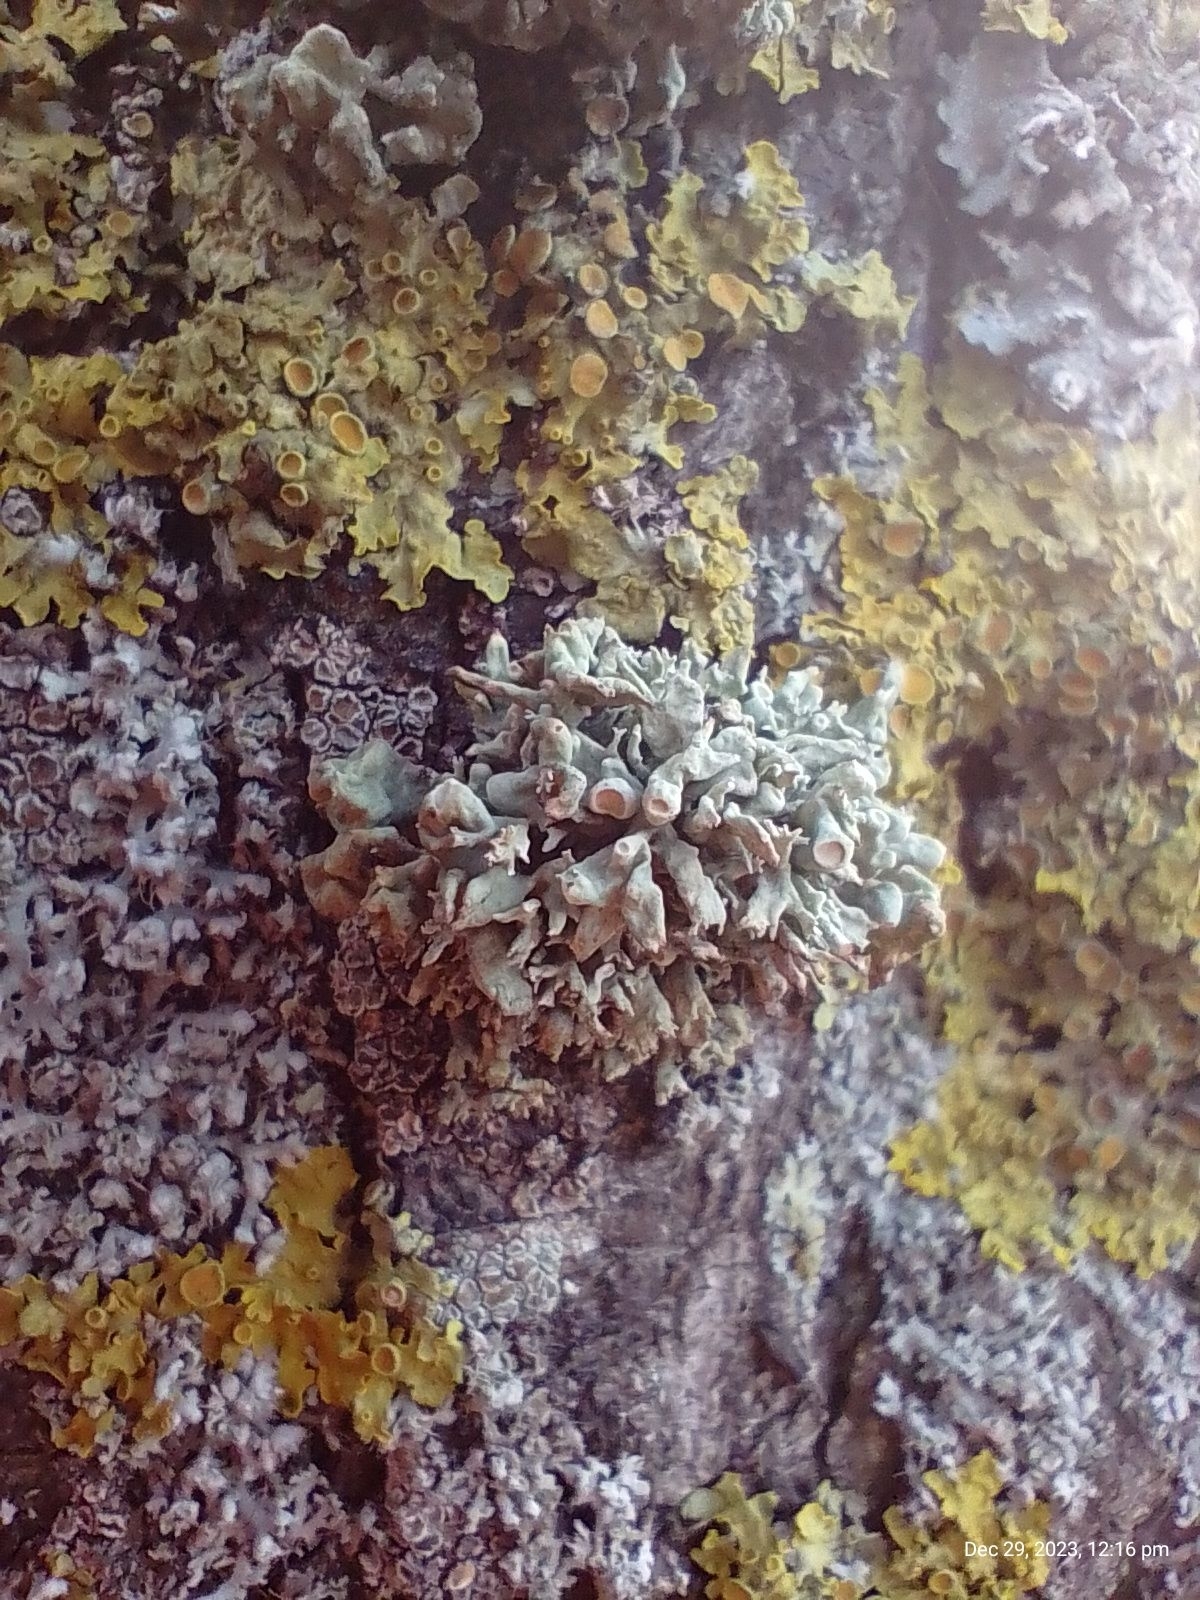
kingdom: Fungi
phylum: Ascomycota
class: Lecanoromycetes
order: Lecanorales
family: Ramalinaceae
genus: Ramalina
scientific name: Ramalina fastigiata
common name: Dotted ribbon lichen
